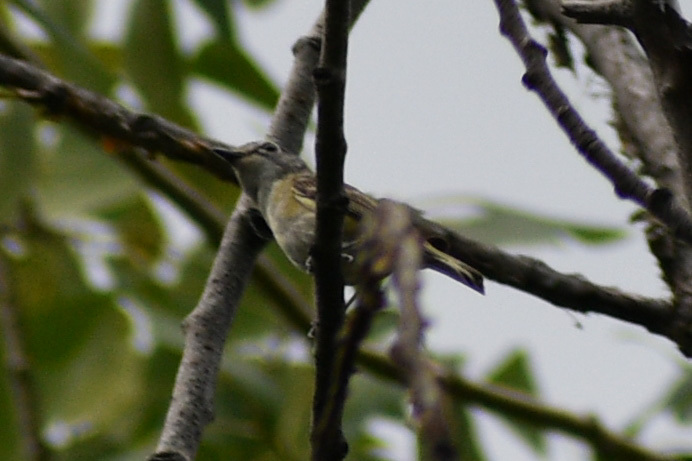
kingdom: Animalia
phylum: Chordata
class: Aves
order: Passeriformes
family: Vireonidae
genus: Vireo
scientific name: Vireo cassinii
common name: Cassin's vireo
